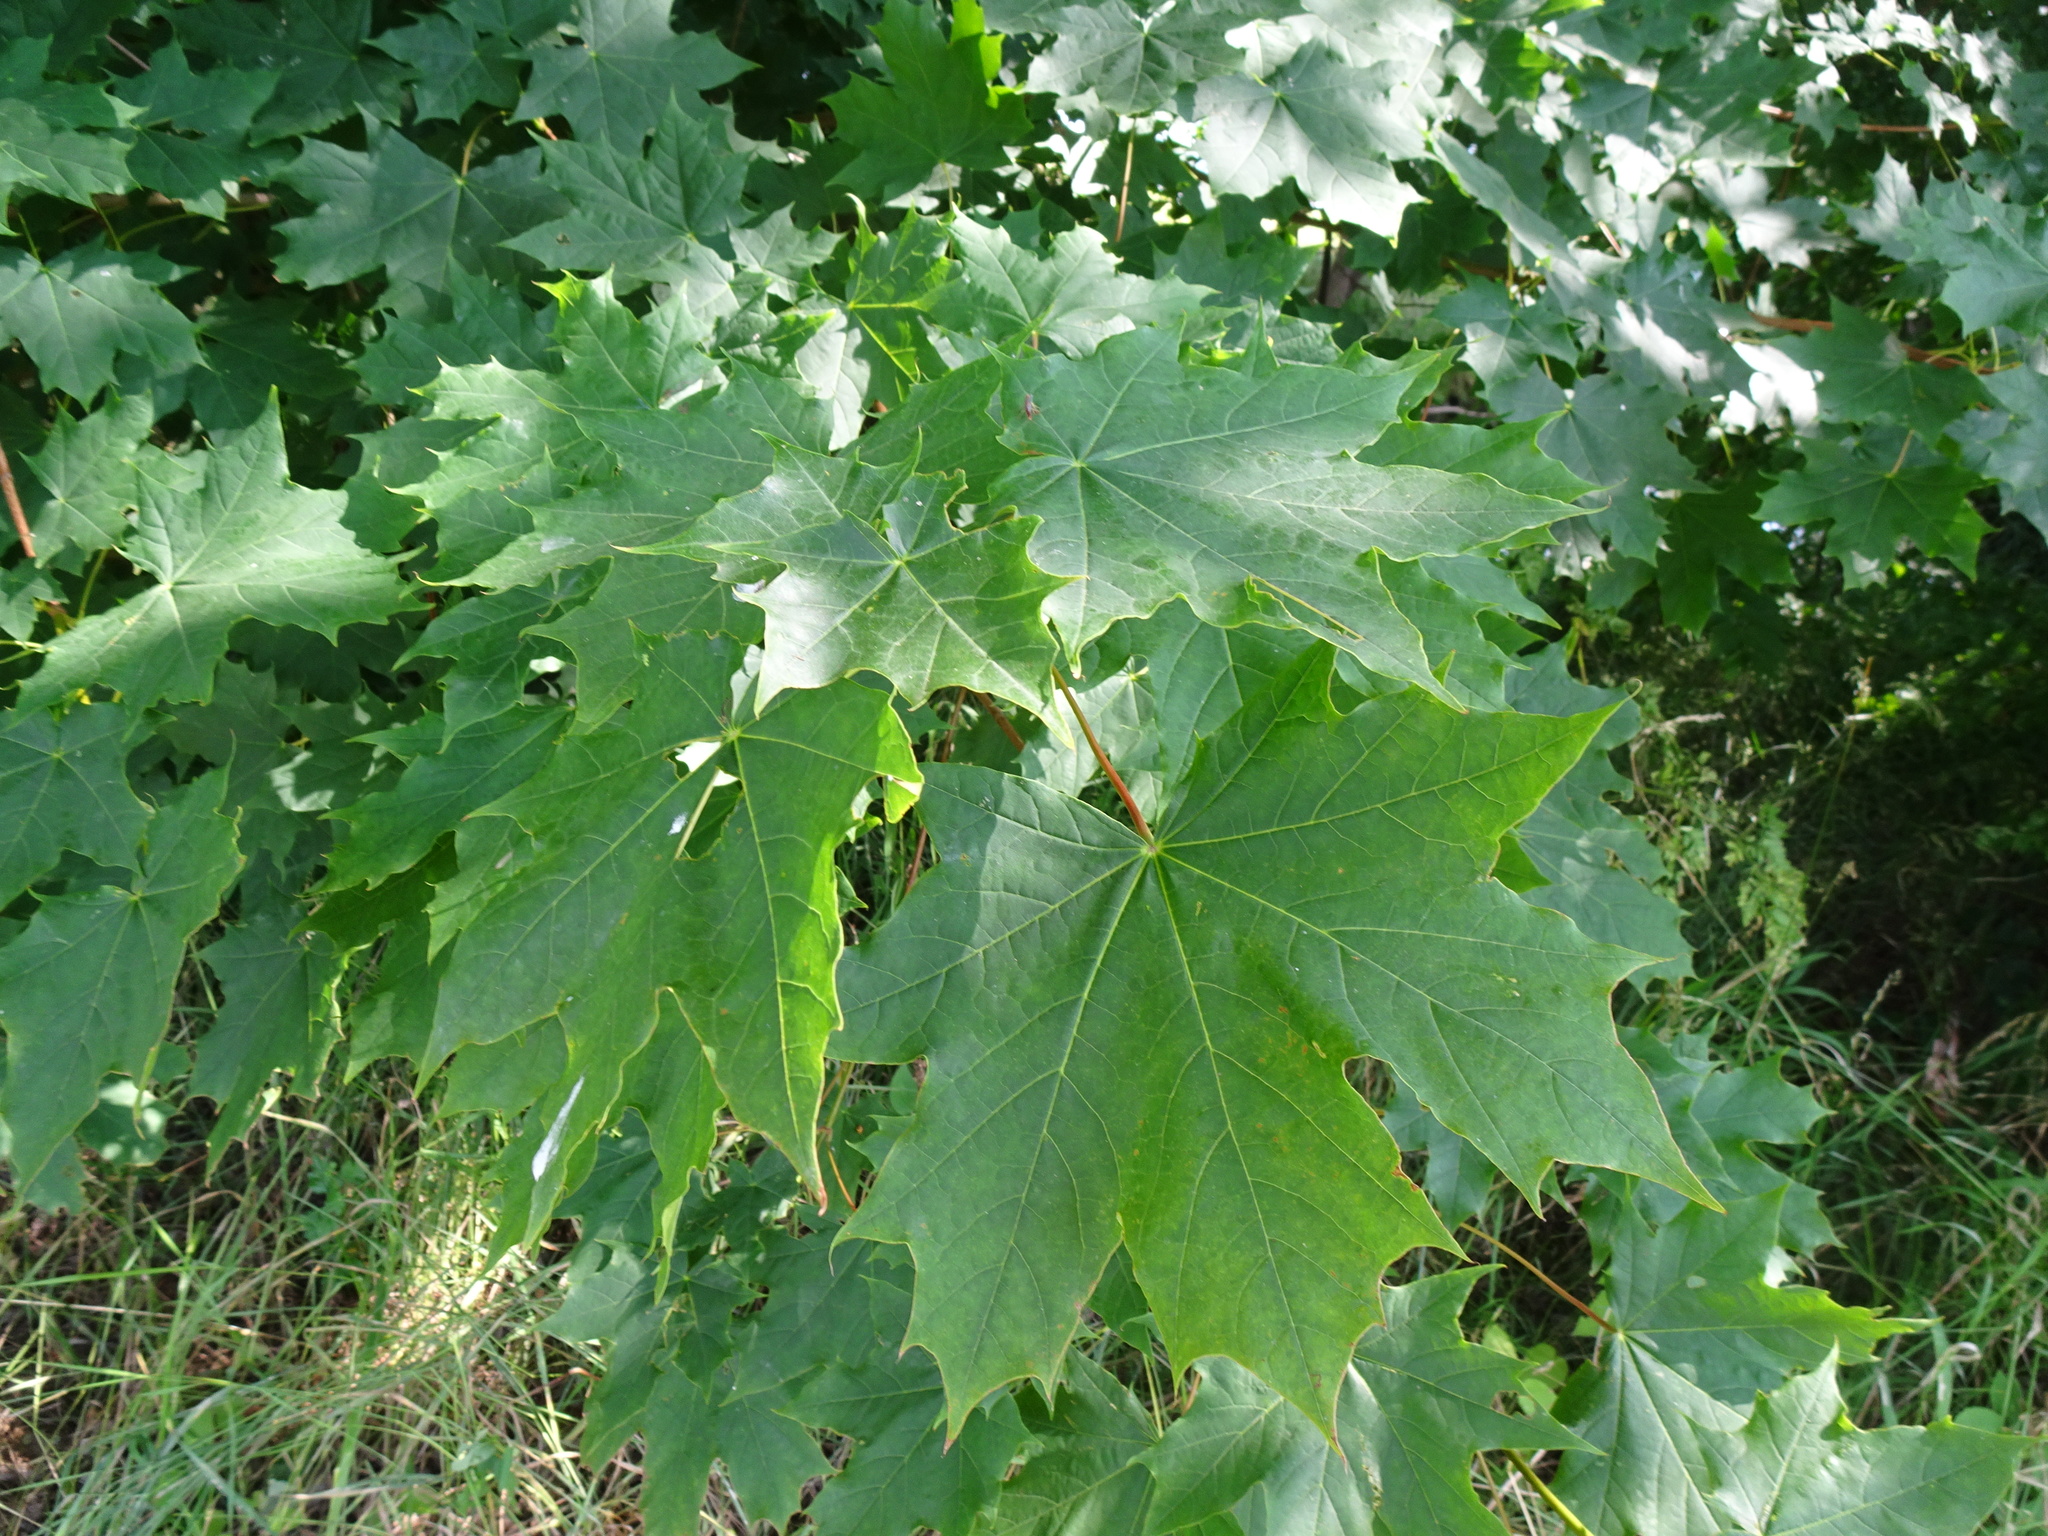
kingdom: Plantae
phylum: Tracheophyta
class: Magnoliopsida
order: Sapindales
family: Sapindaceae
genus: Acer
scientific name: Acer platanoides
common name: Norway maple
